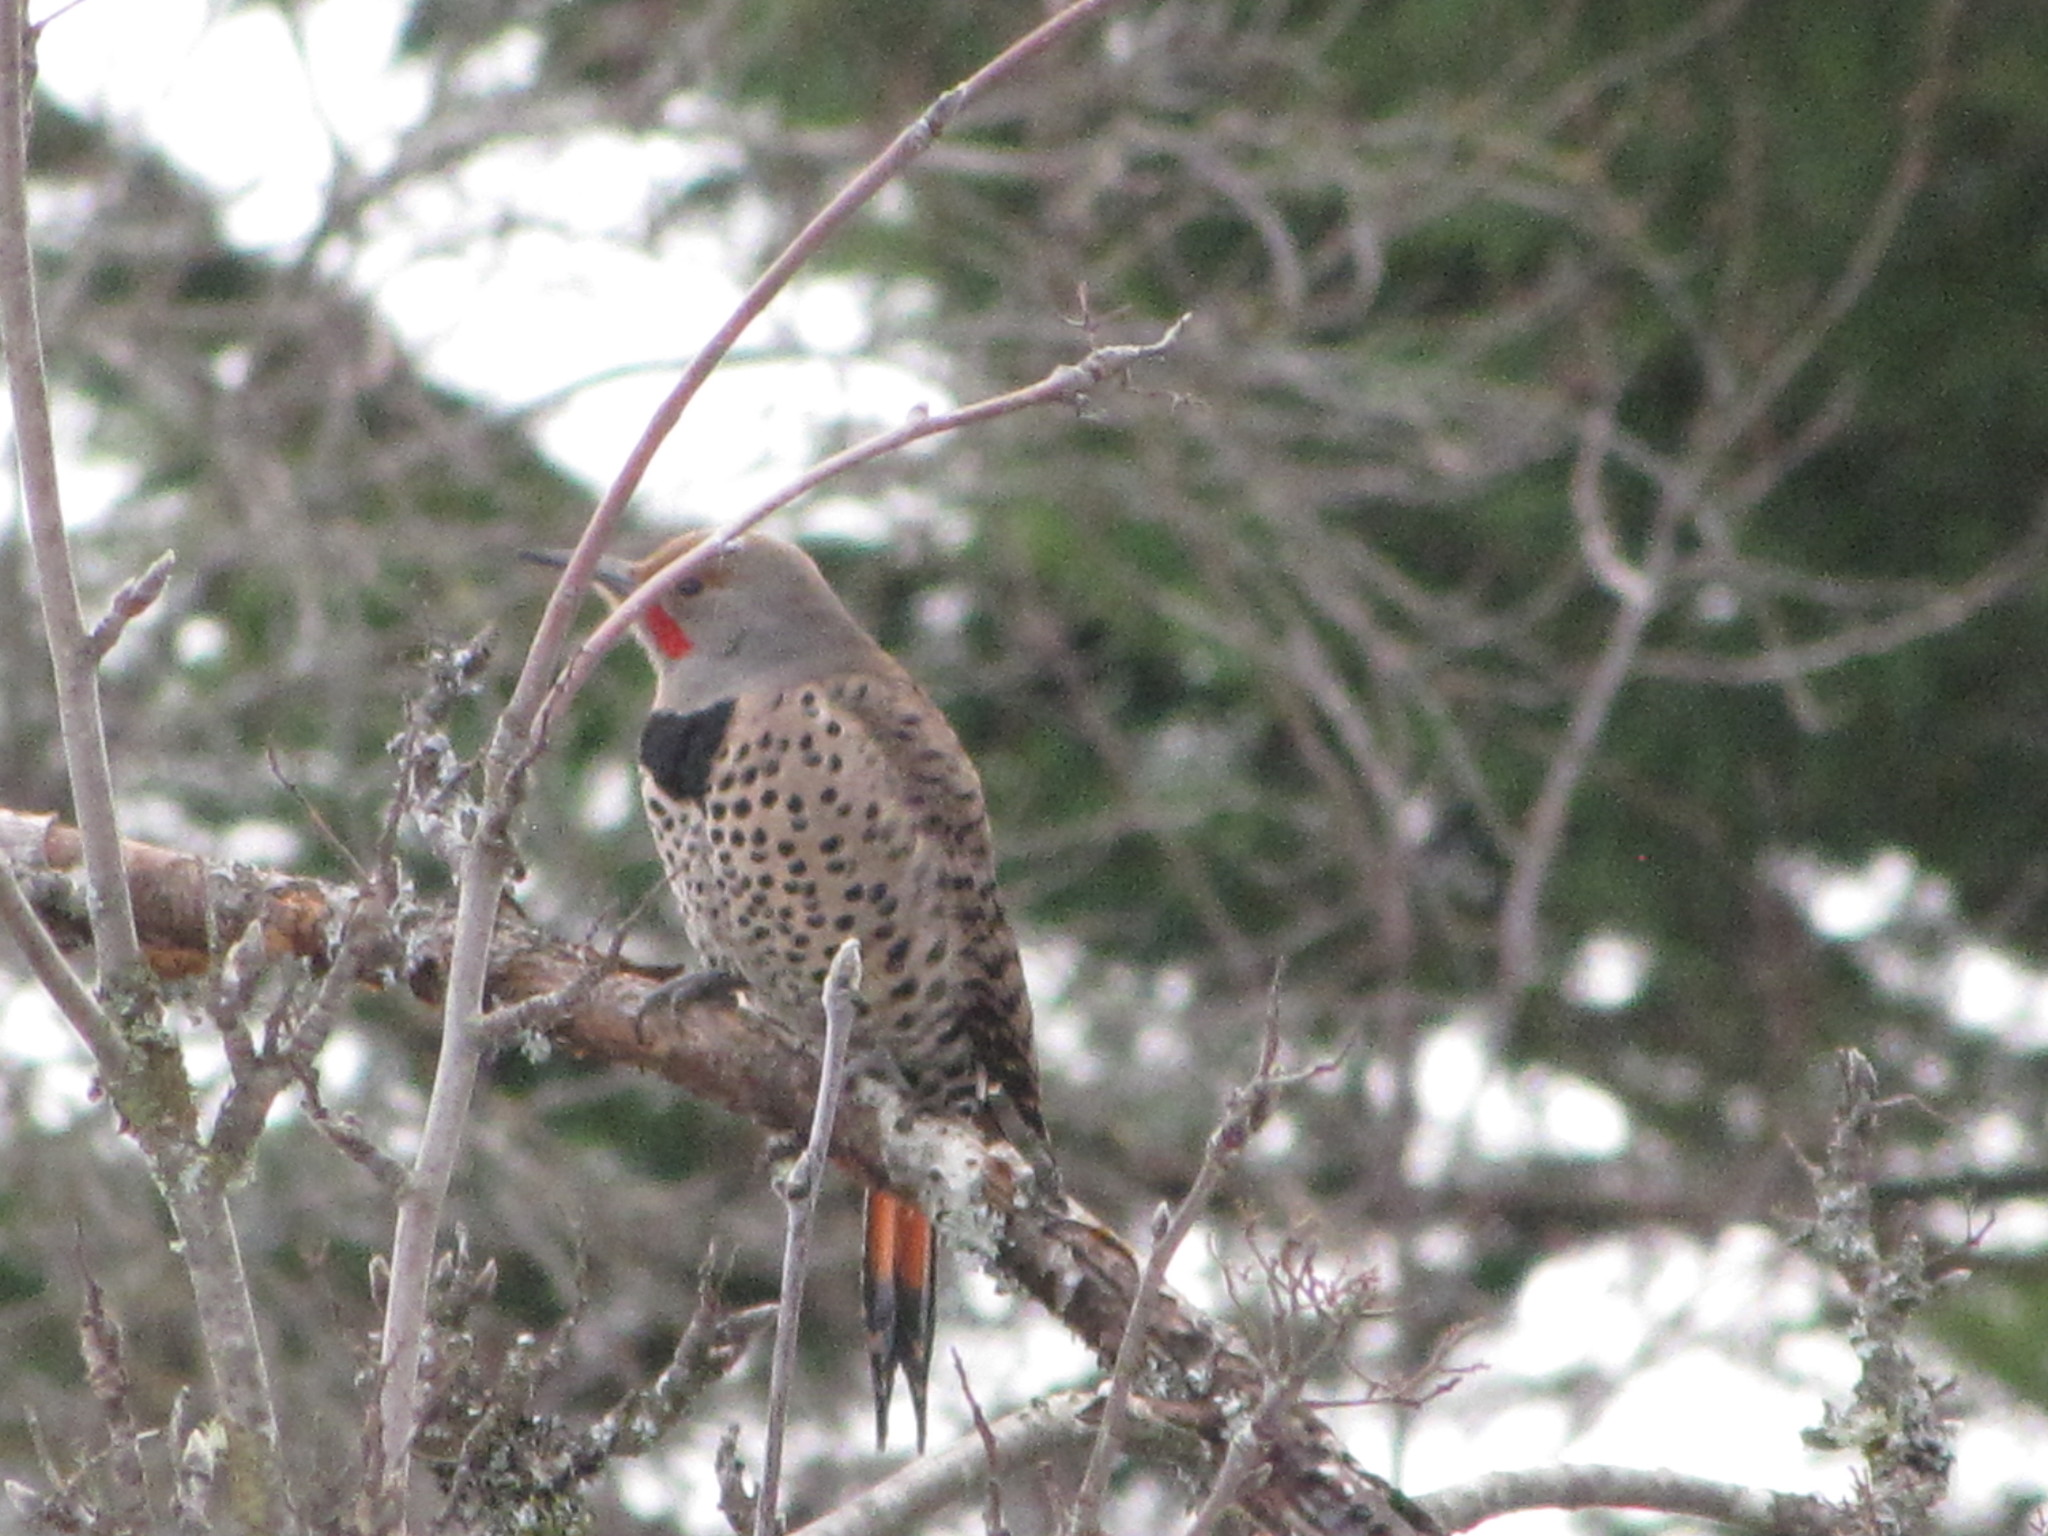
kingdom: Animalia
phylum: Chordata
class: Aves
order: Piciformes
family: Picidae
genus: Colaptes
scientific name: Colaptes auratus
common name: Northern flicker
